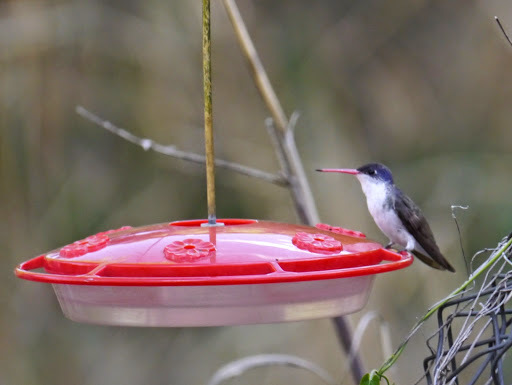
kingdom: Animalia
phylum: Chordata
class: Aves
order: Apodiformes
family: Trochilidae
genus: Leucolia
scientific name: Leucolia violiceps
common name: Violet-crowned hummingbird
